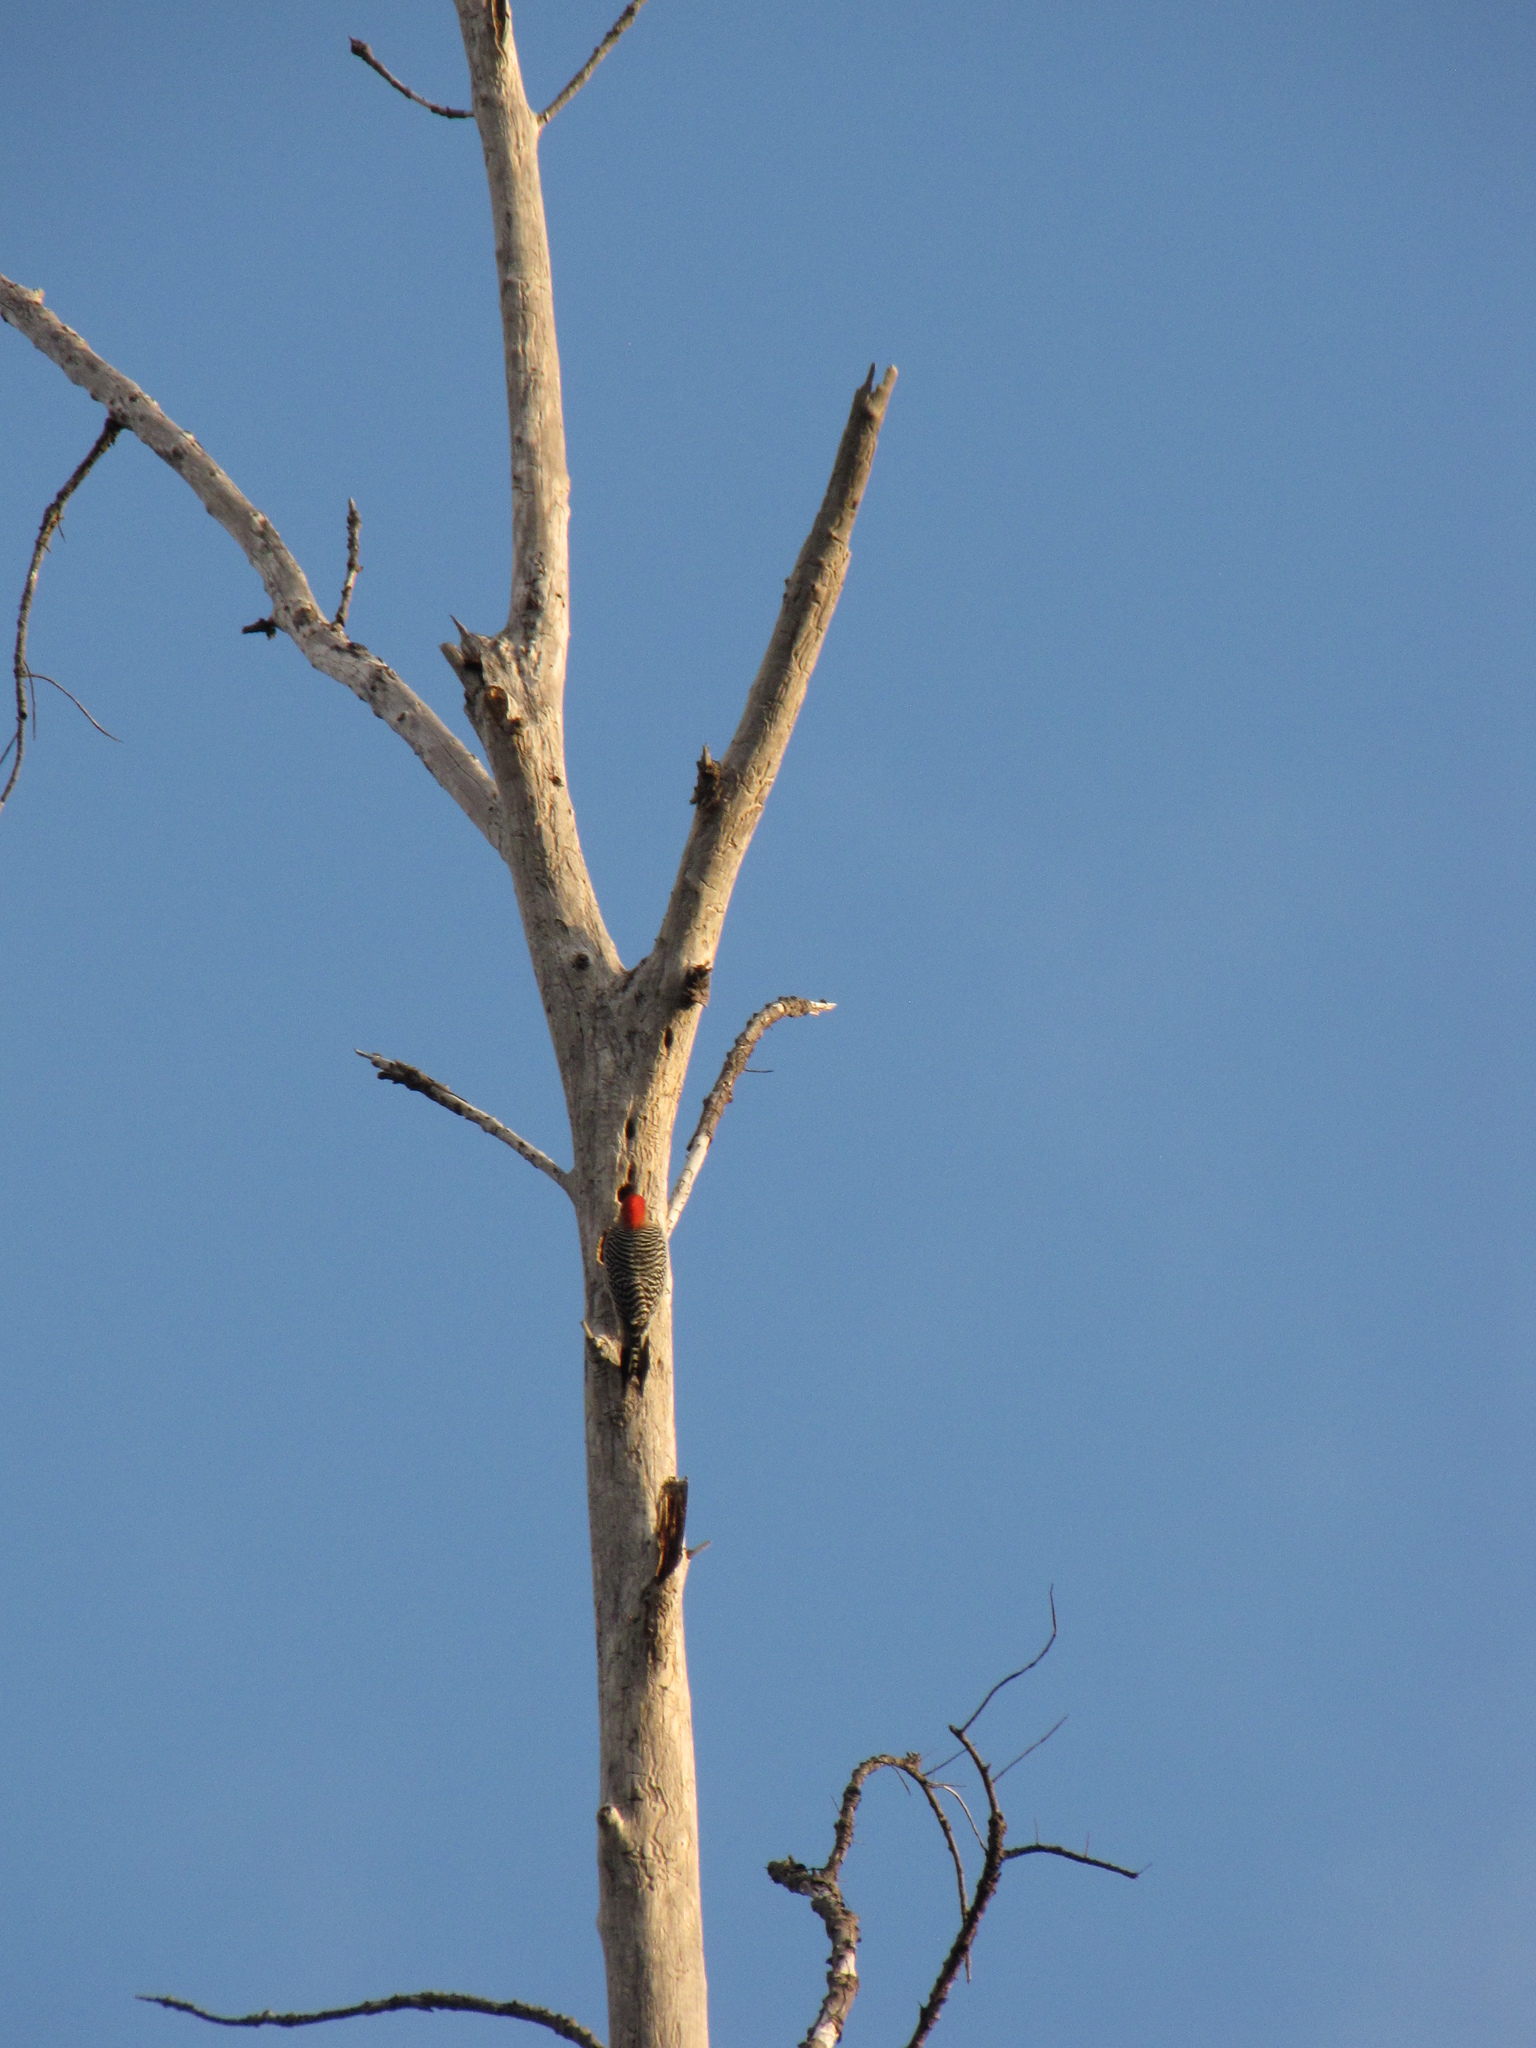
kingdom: Animalia
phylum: Chordata
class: Aves
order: Piciformes
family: Picidae
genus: Melanerpes
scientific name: Melanerpes carolinus
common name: Red-bellied woodpecker
